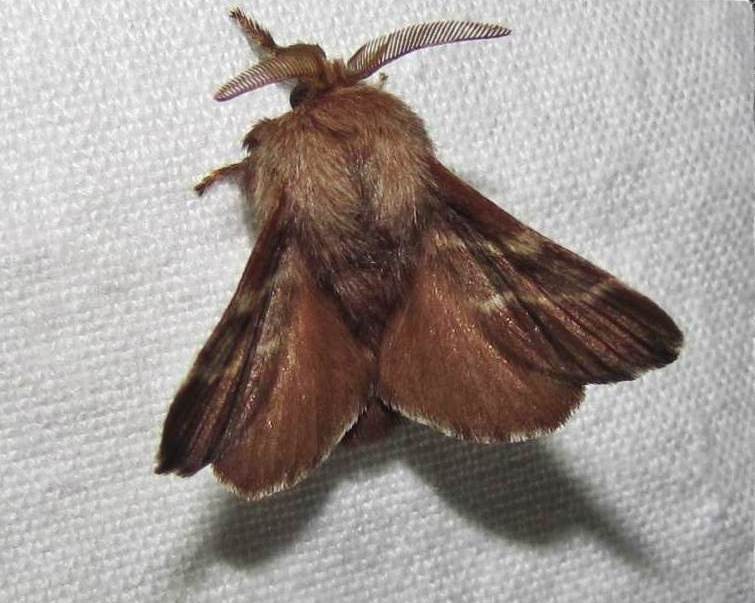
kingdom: Animalia
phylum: Arthropoda
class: Insecta
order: Lepidoptera
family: Lasiocampidae
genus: Malacosoma
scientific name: Malacosoma americana
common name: Eastern tent caterpillar moth
